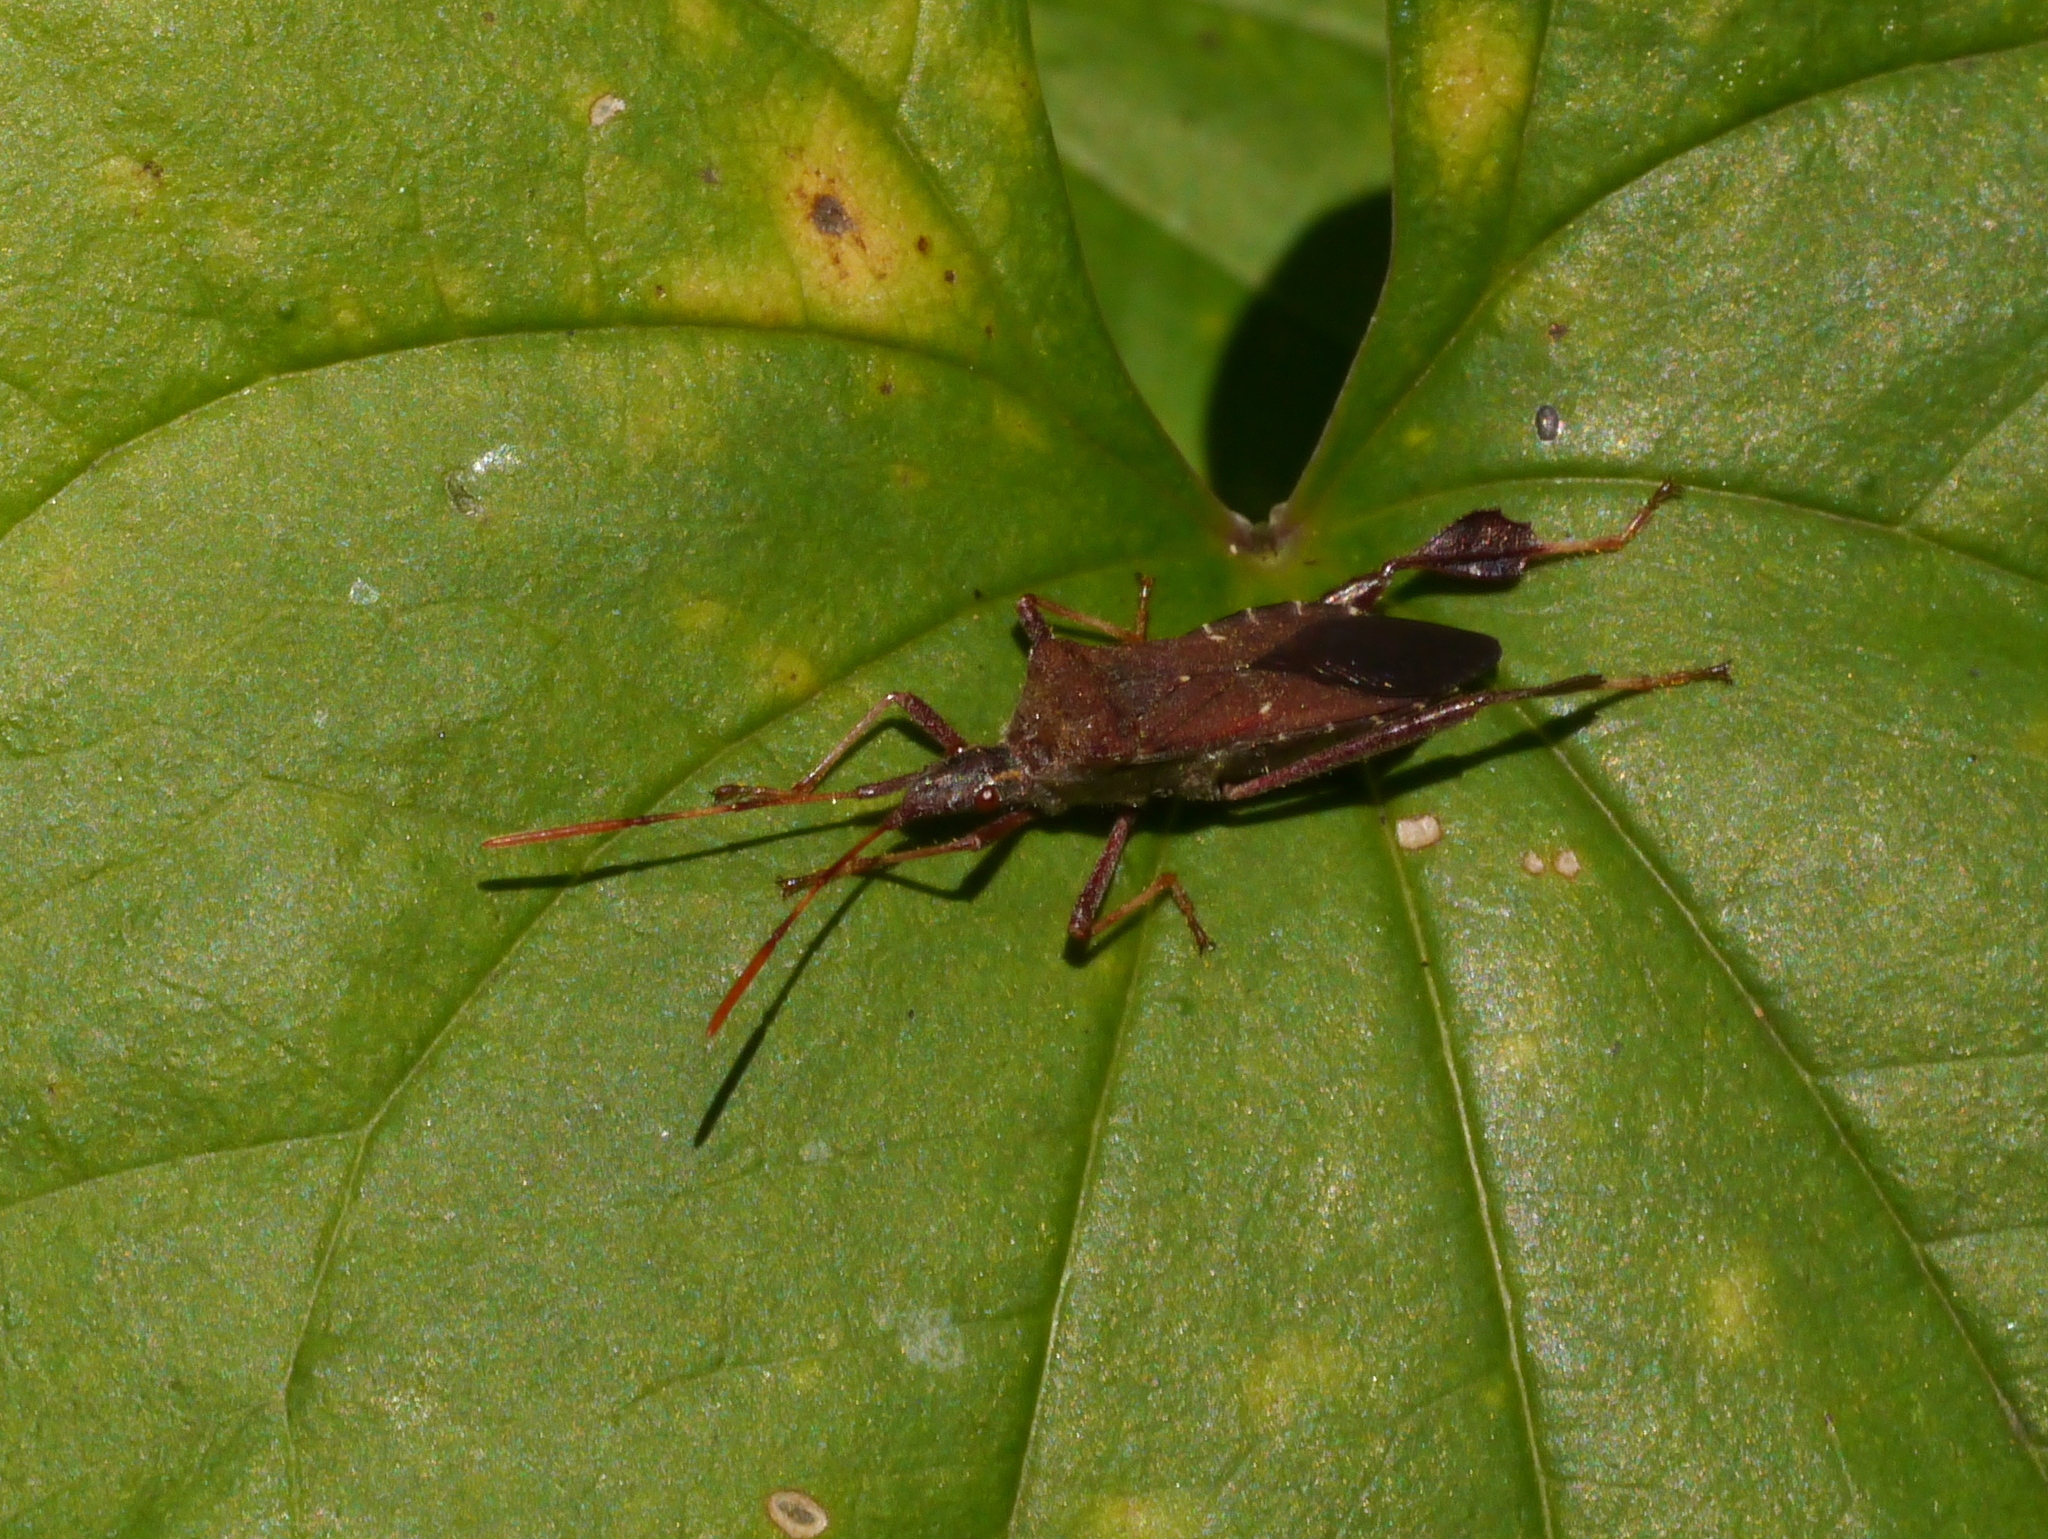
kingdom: Animalia
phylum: Arthropoda
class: Insecta
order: Hemiptera
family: Coreidae
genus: Leptoglossus
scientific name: Leptoglossus oppositus
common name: Northern leaf-footed bug
